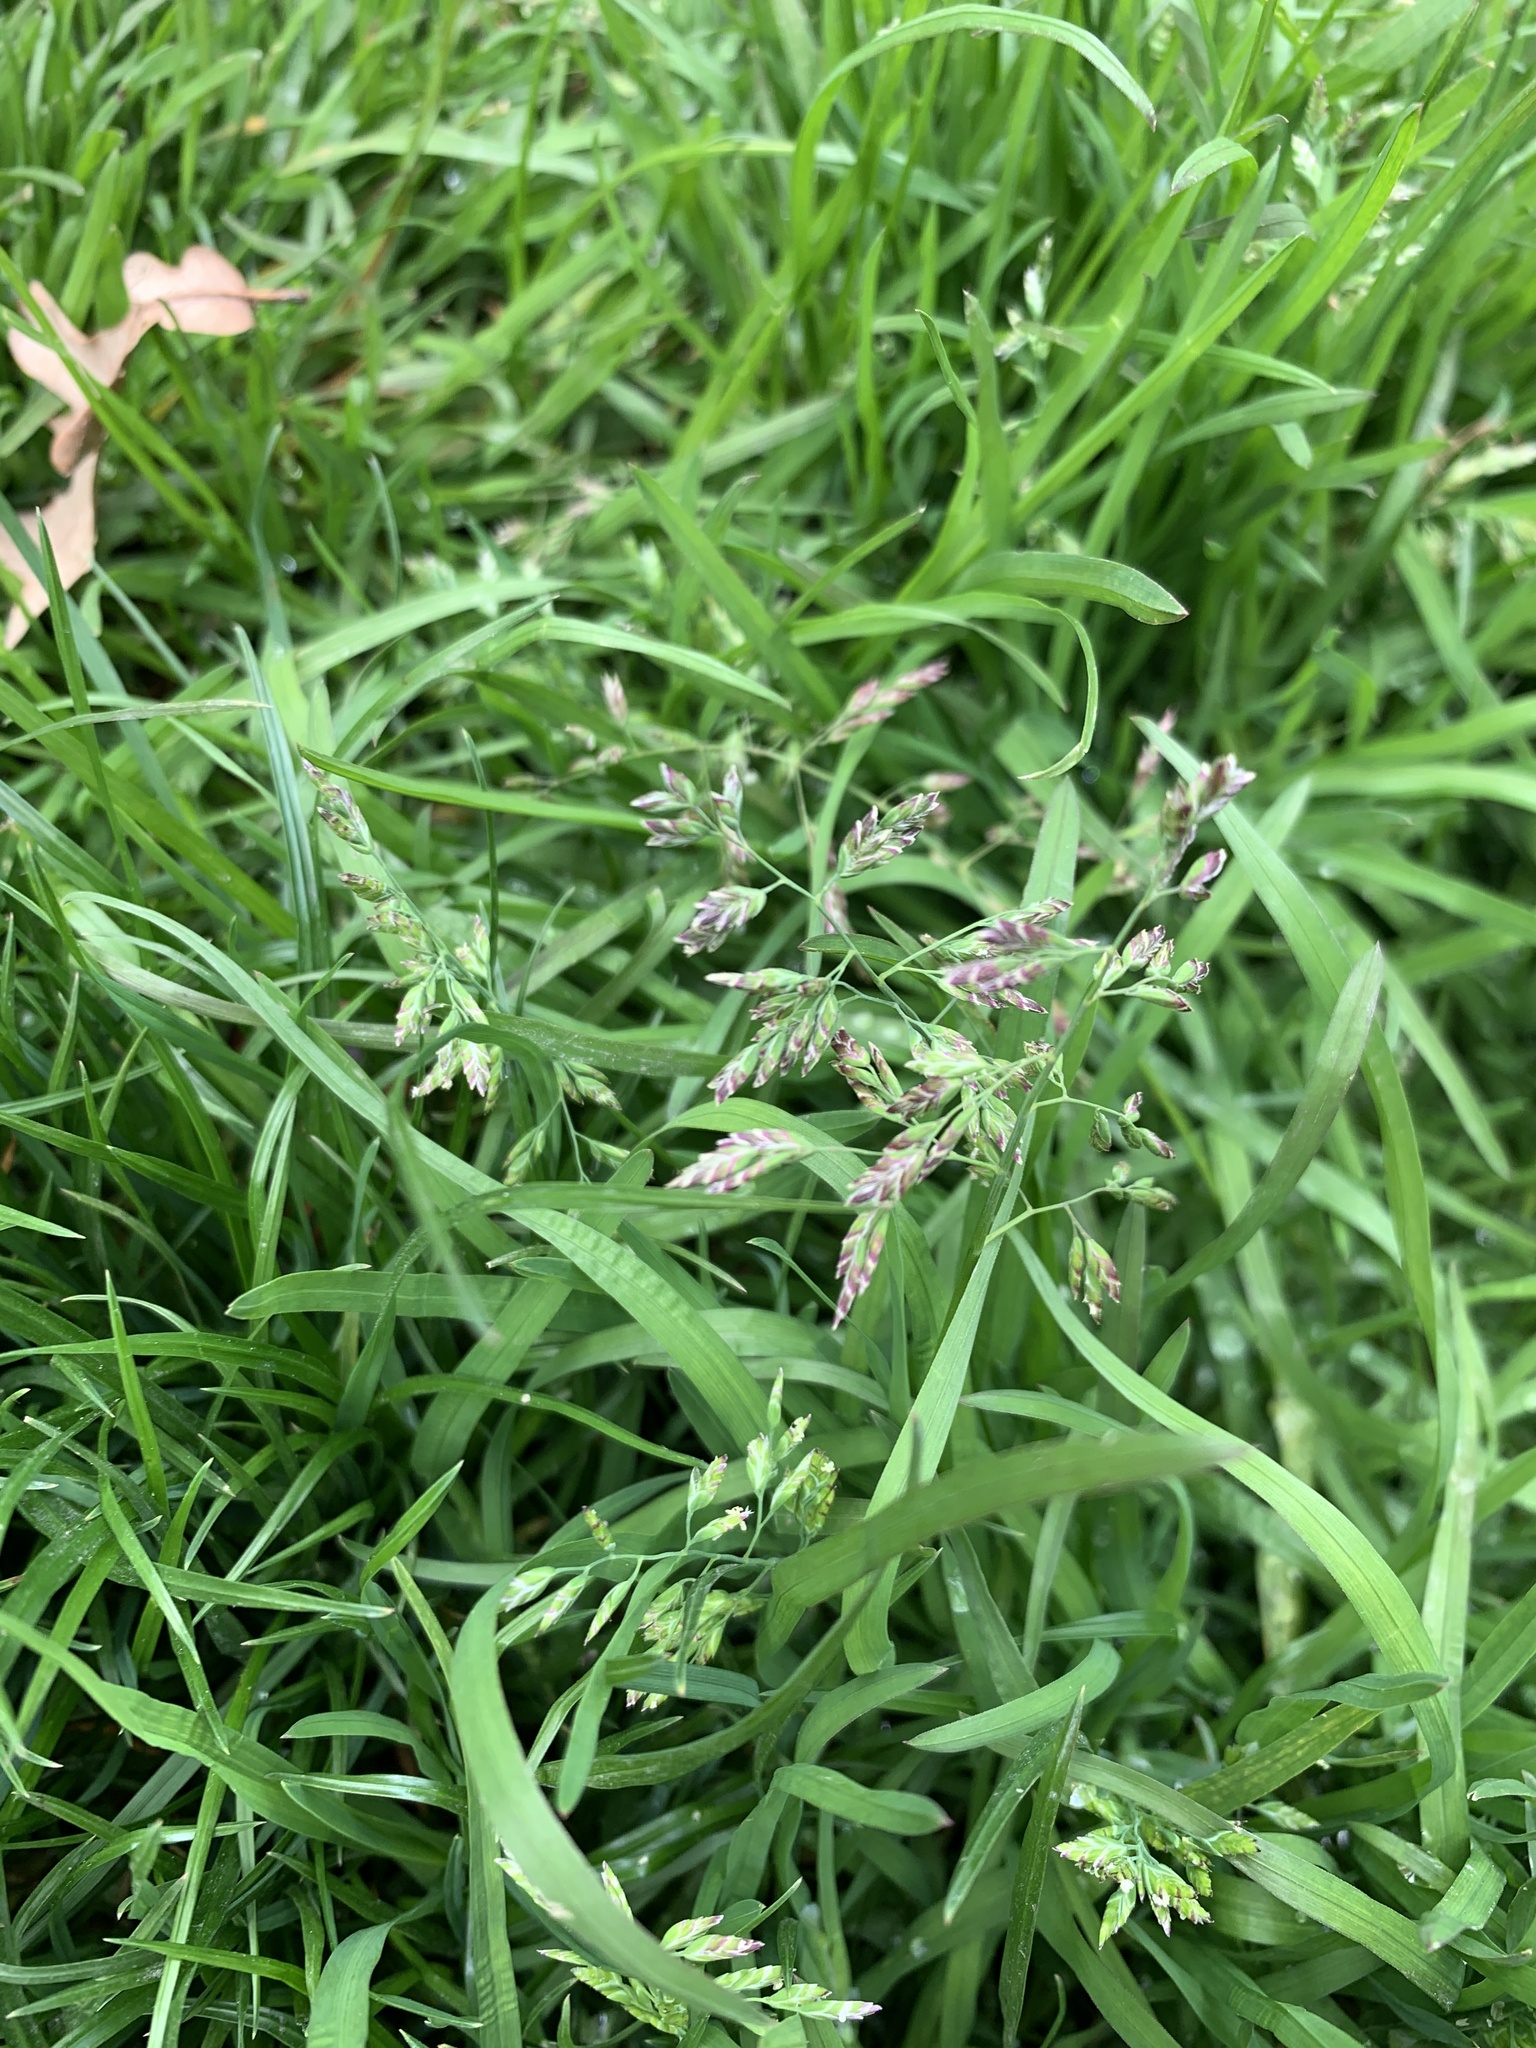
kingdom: Plantae
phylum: Tracheophyta
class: Liliopsida
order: Poales
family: Poaceae
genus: Poa
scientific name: Poa annua
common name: Annual bluegrass
